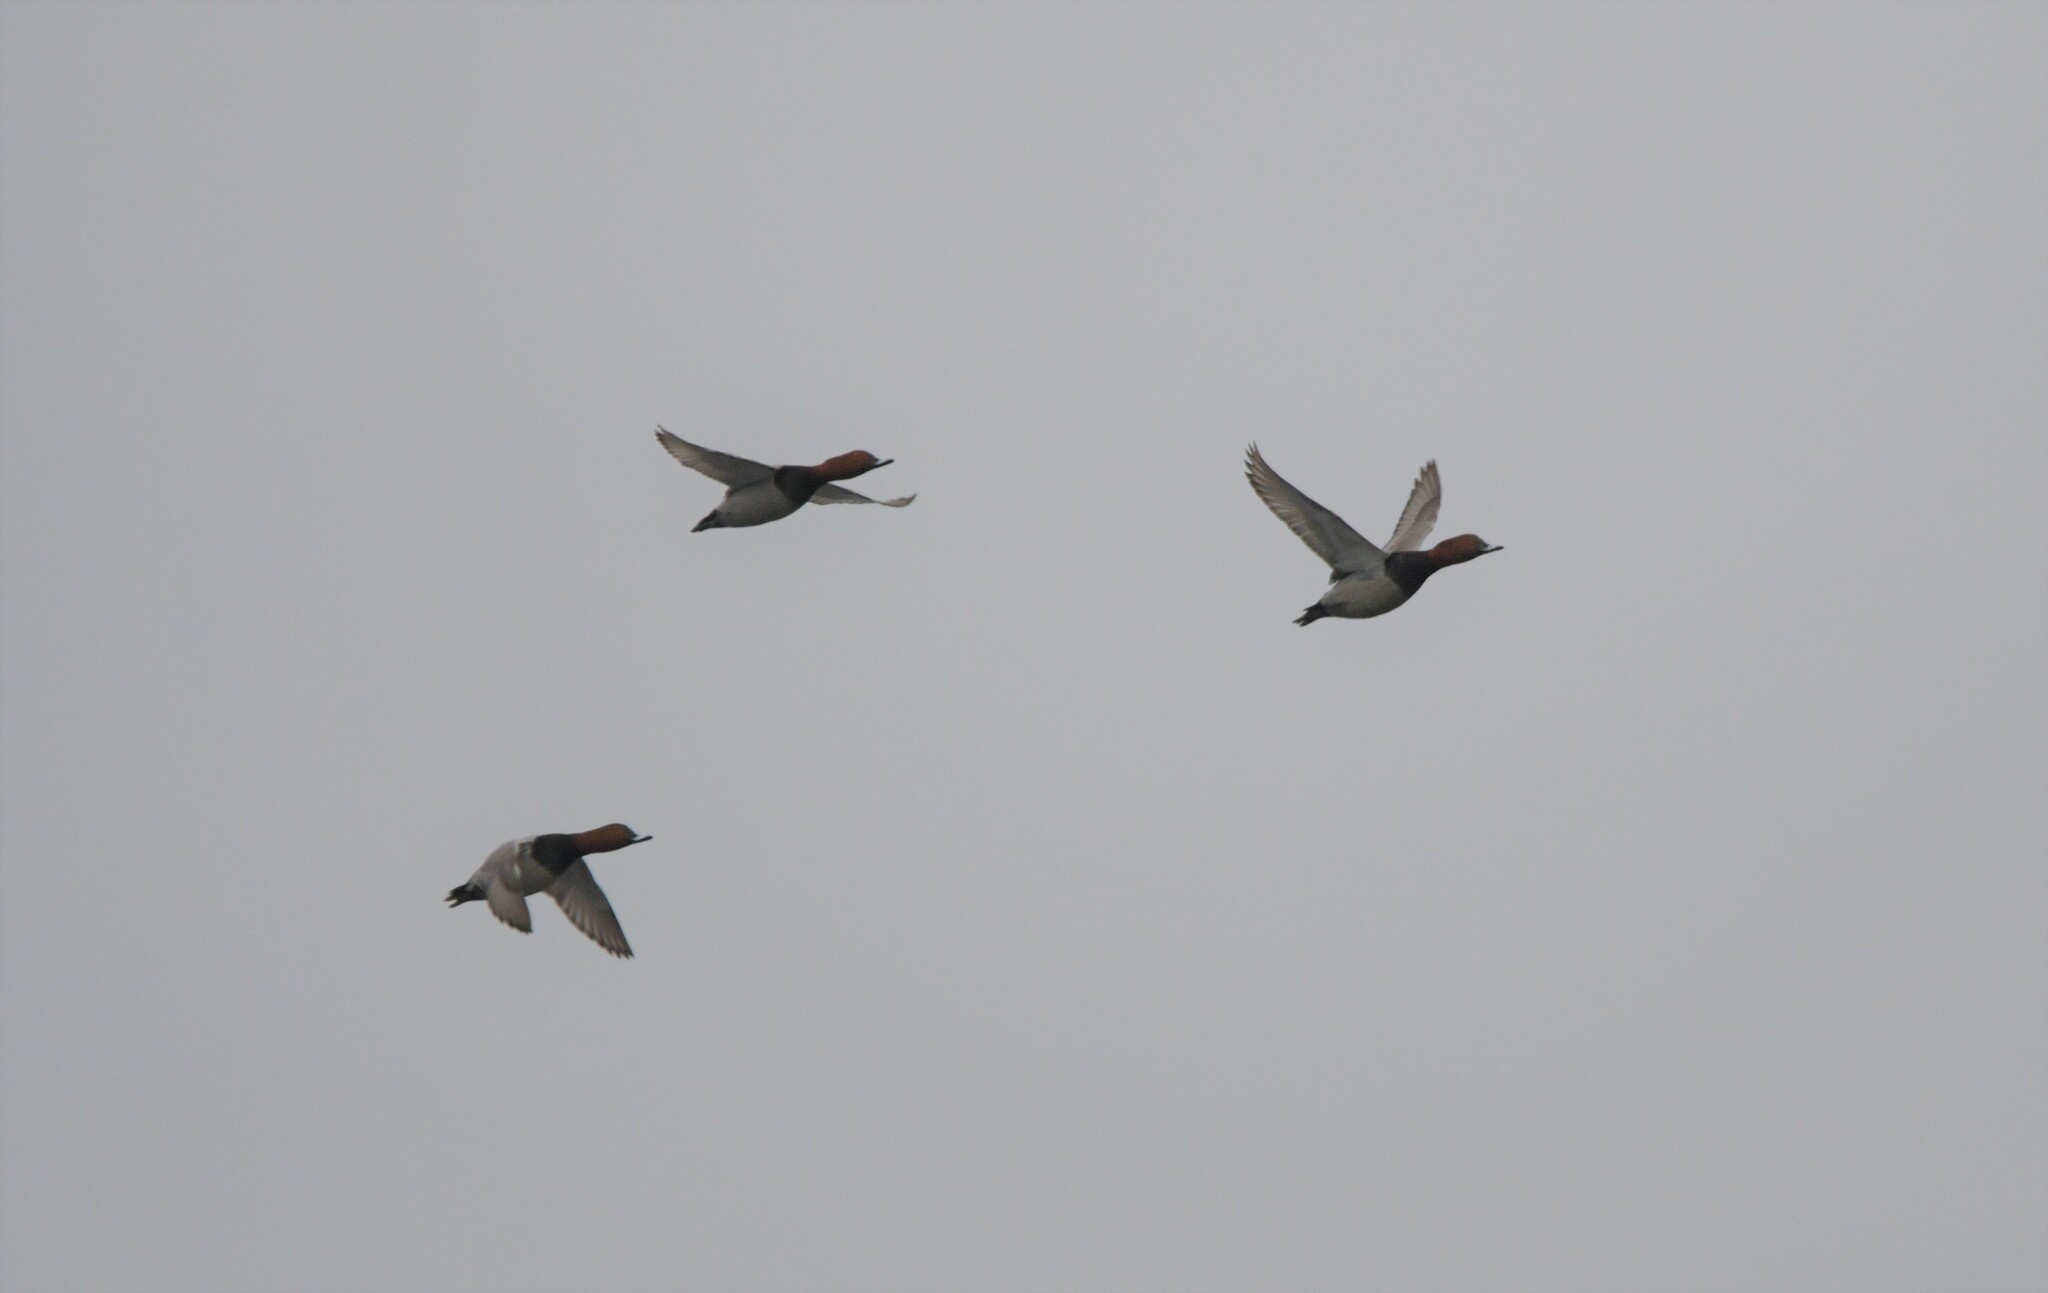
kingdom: Animalia
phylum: Chordata
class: Aves
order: Anseriformes
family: Anatidae
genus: Aythya
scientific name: Aythya ferina
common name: Common pochard
